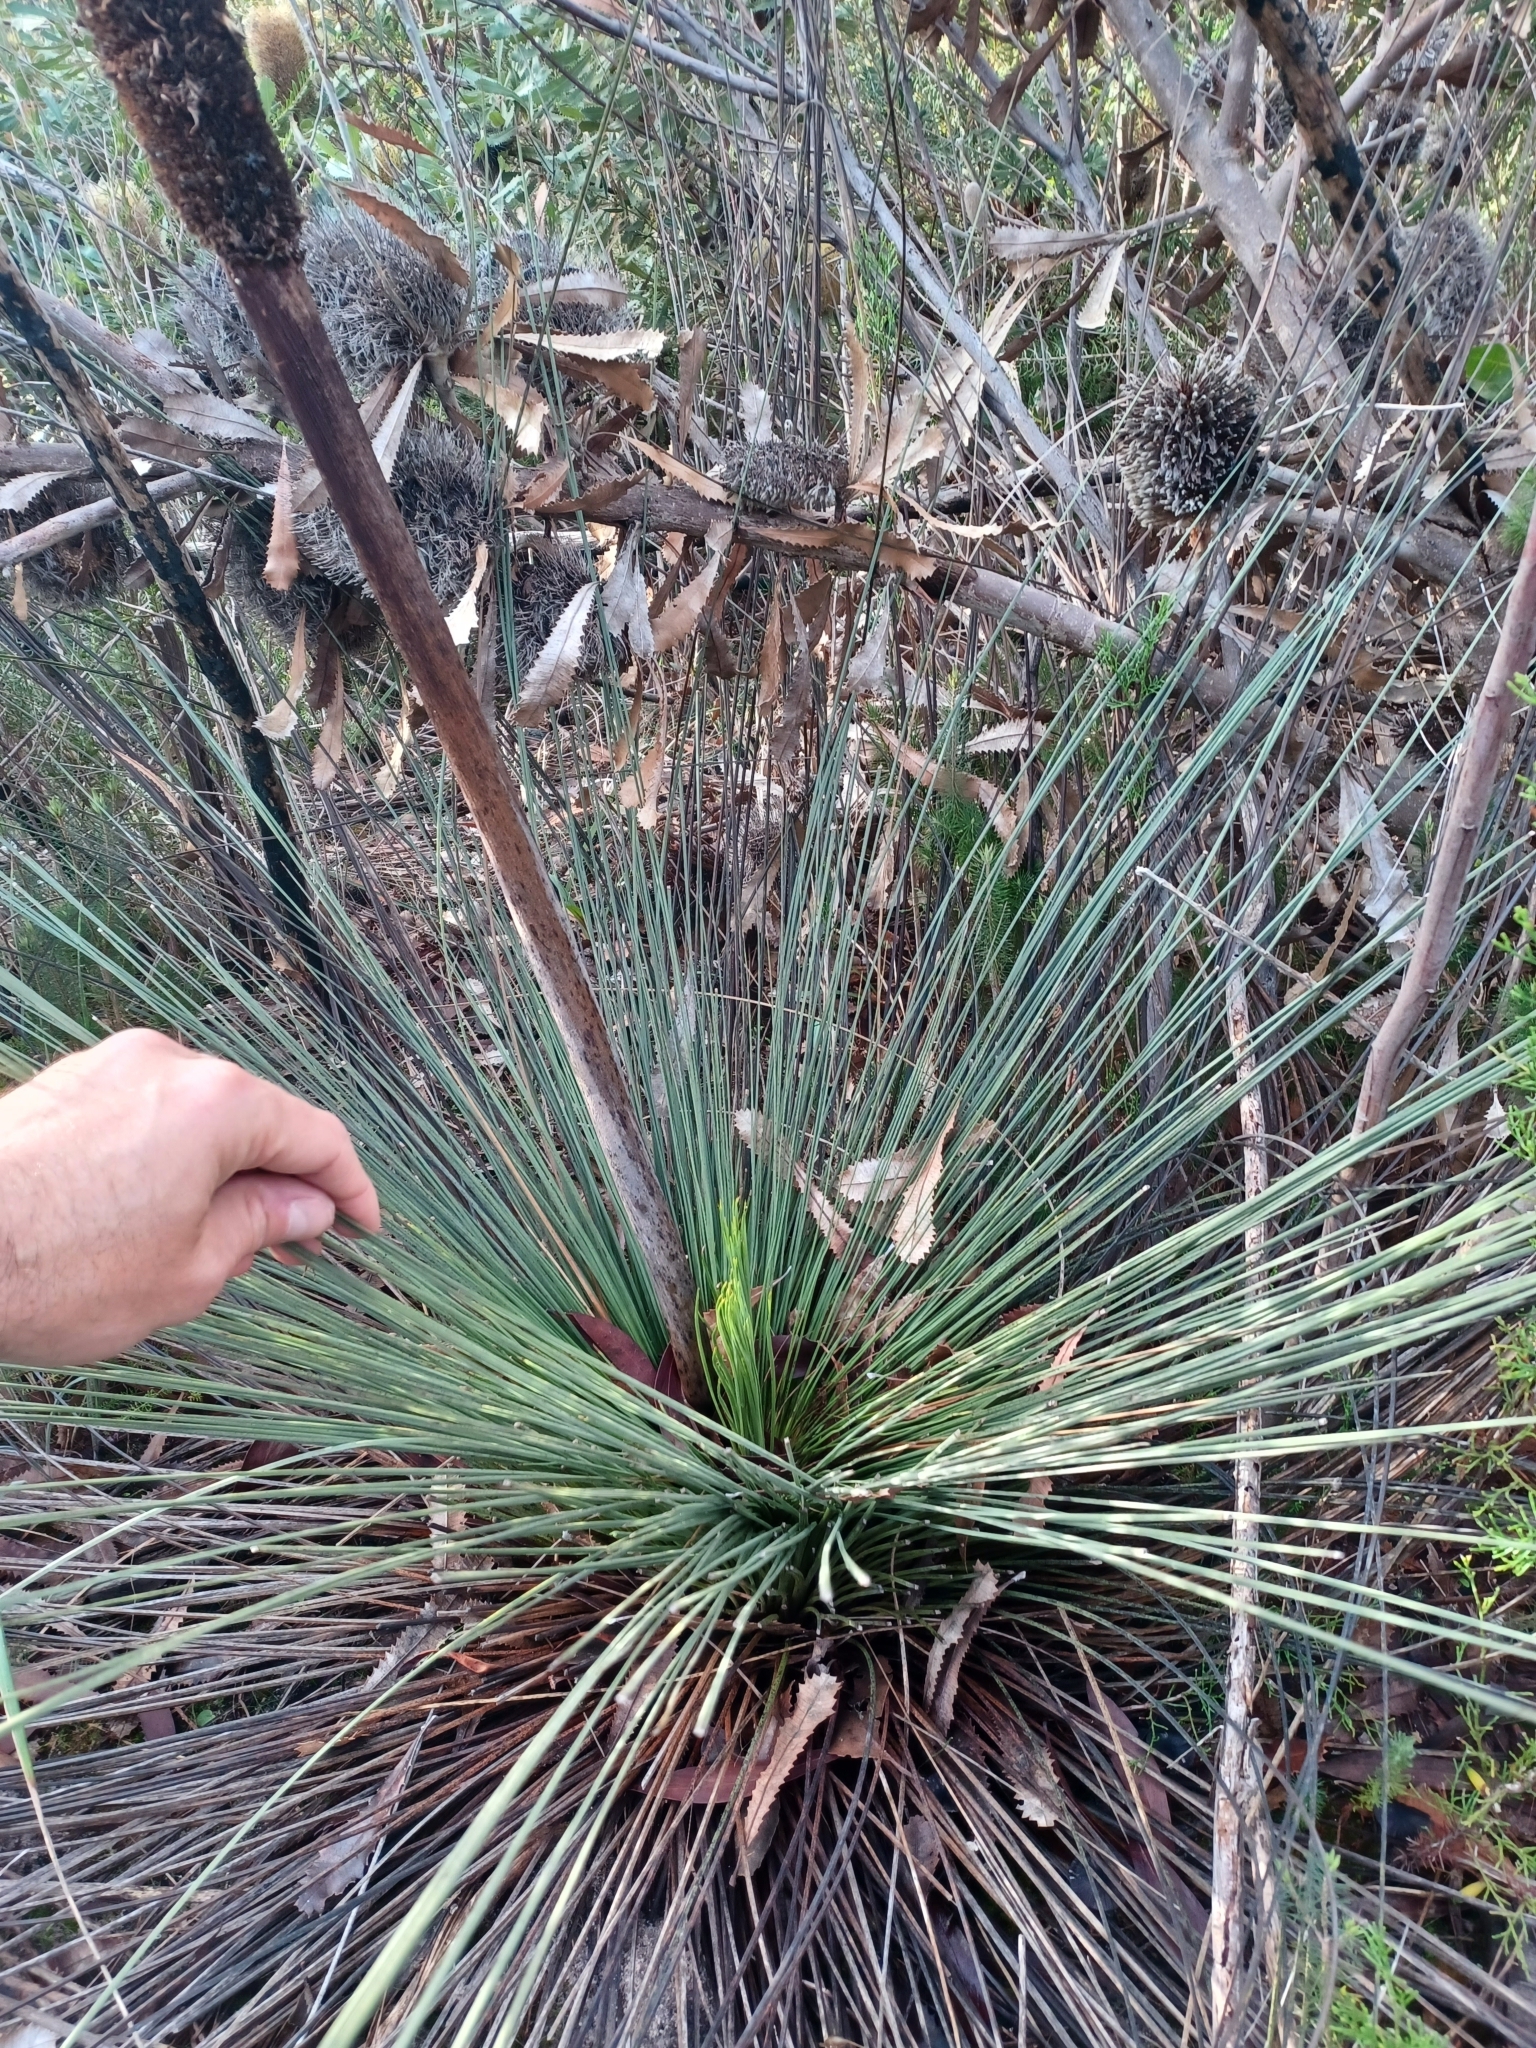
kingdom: Plantae
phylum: Tracheophyta
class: Liliopsida
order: Asparagales
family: Asphodelaceae
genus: Xanthorrhoea
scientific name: Xanthorrhoea australis
